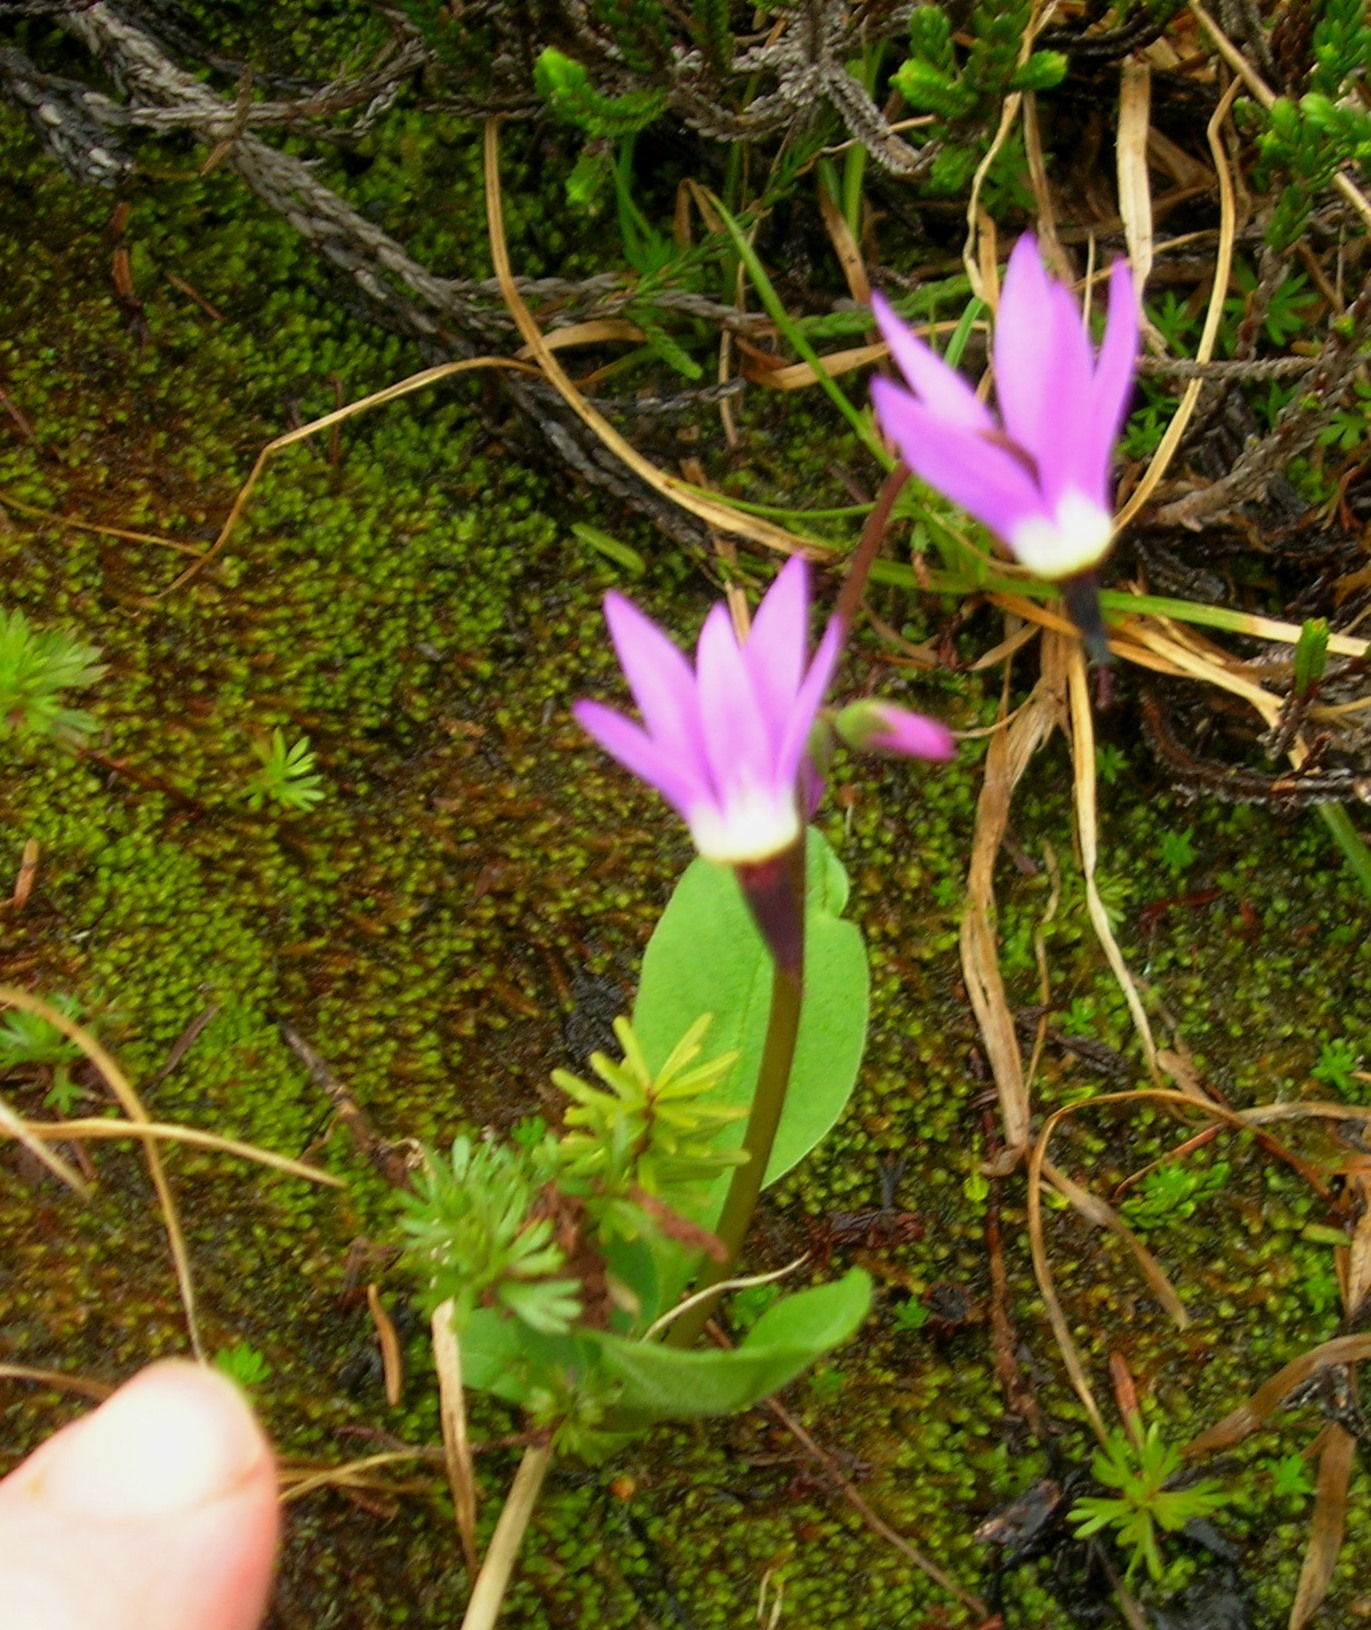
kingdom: Plantae
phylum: Tracheophyta
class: Magnoliopsida
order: Ericales
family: Primulaceae
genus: Dodecatheon
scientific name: Dodecatheon jeffreyanum
